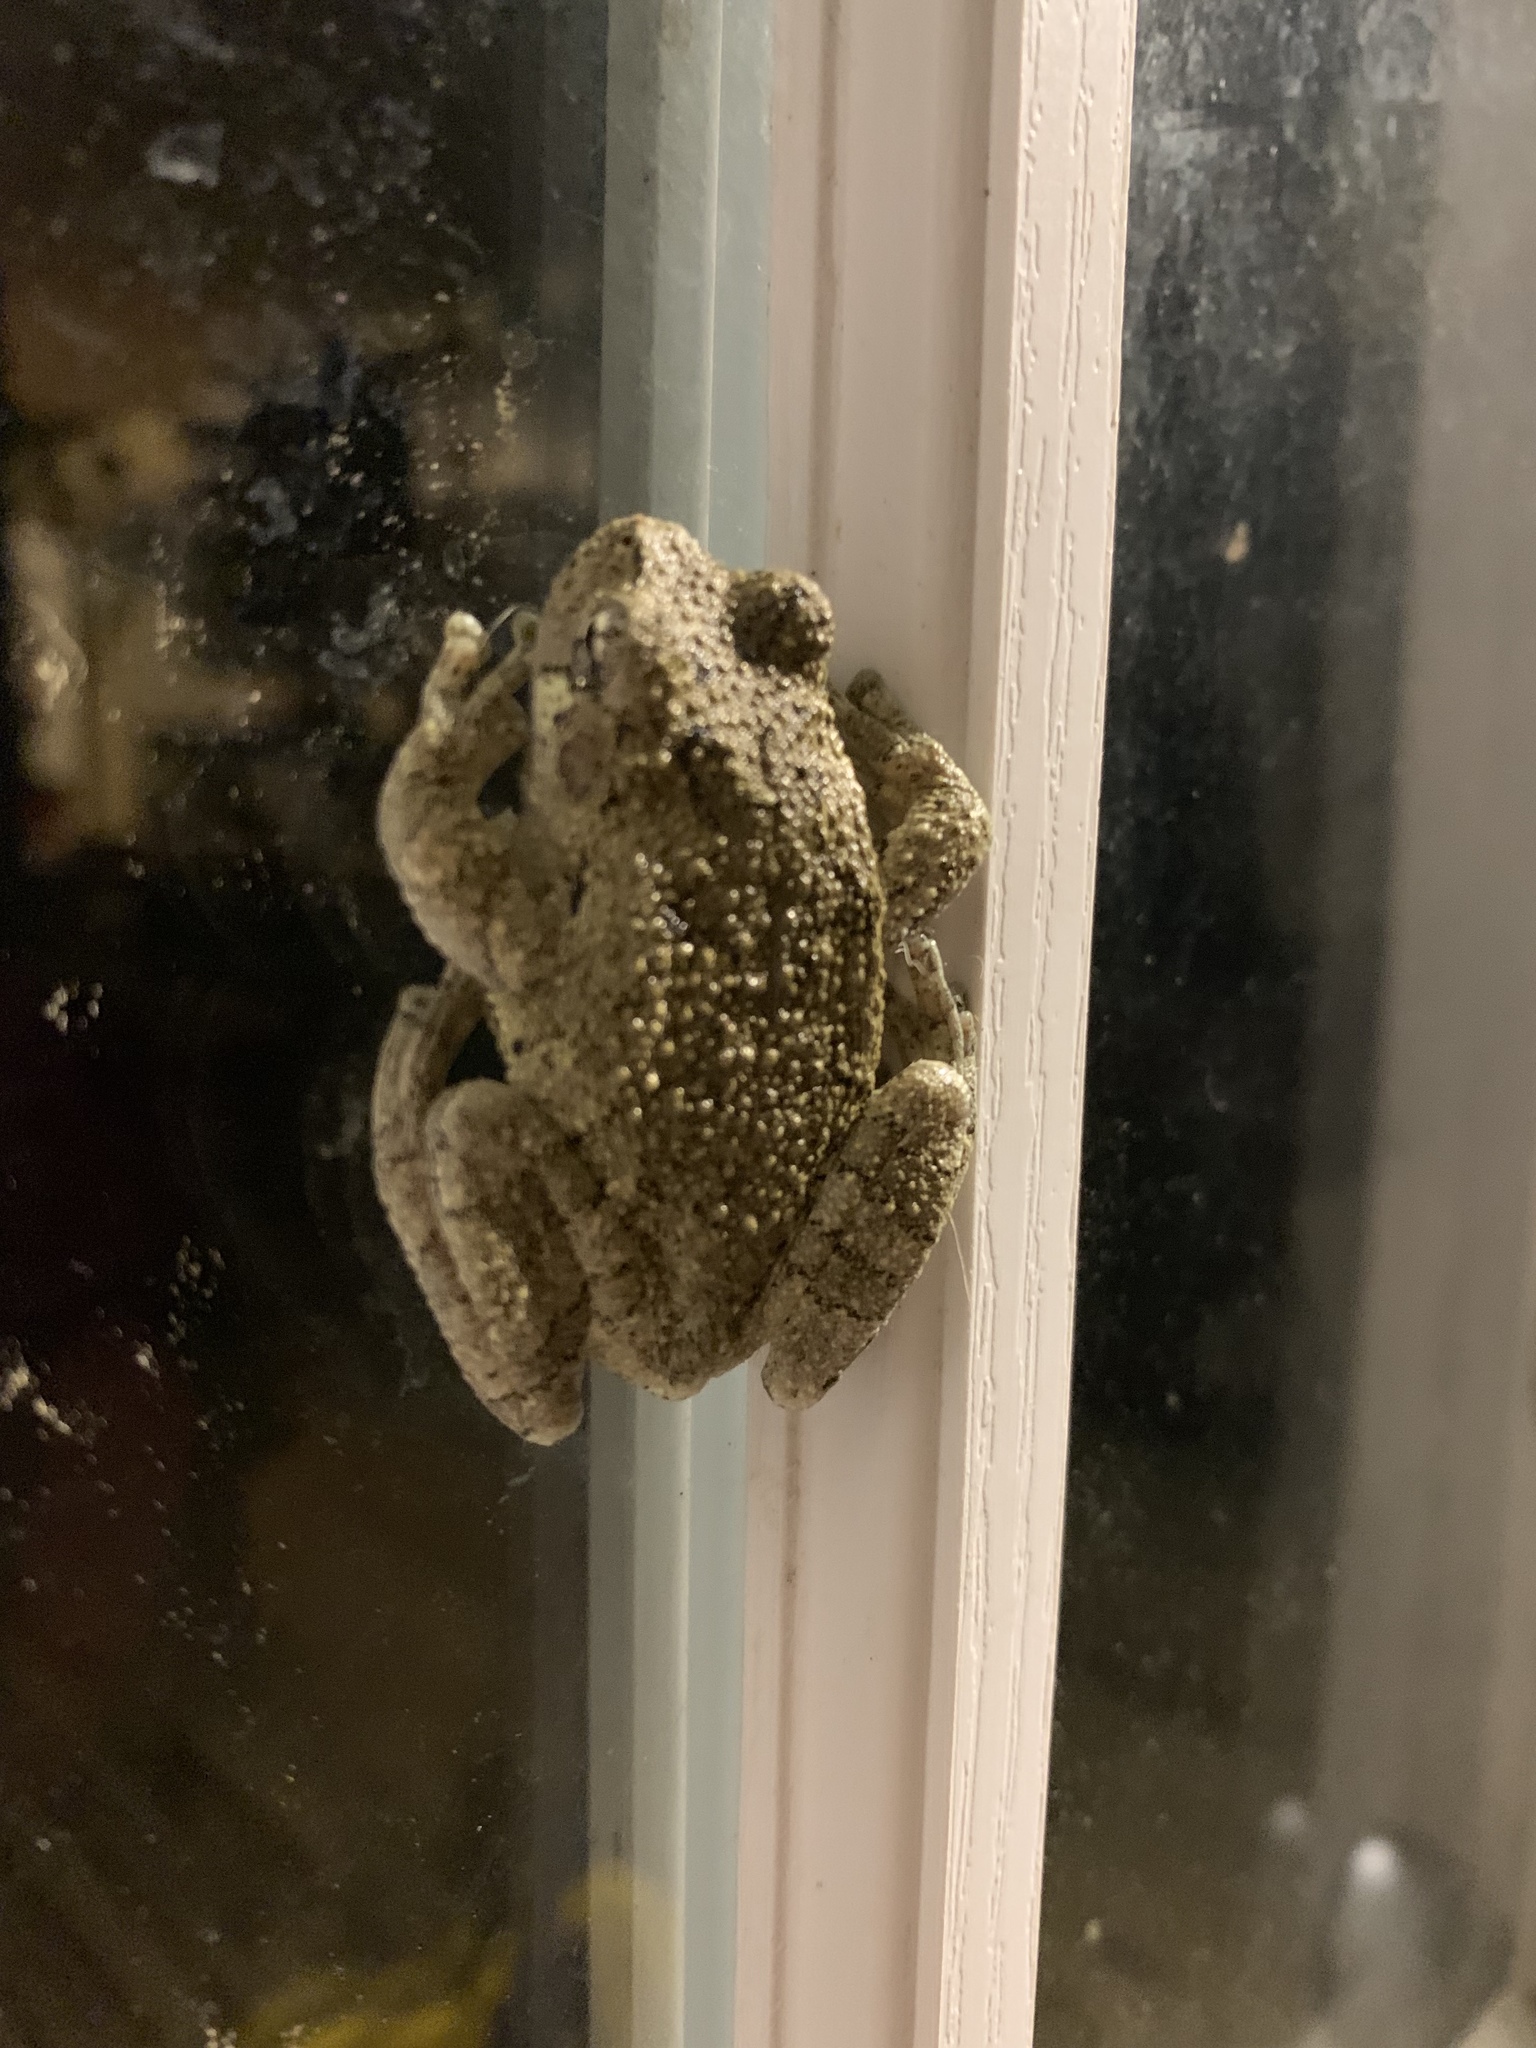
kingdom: Animalia
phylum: Chordata
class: Amphibia
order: Anura
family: Hylidae
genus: Hyla
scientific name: Hyla
